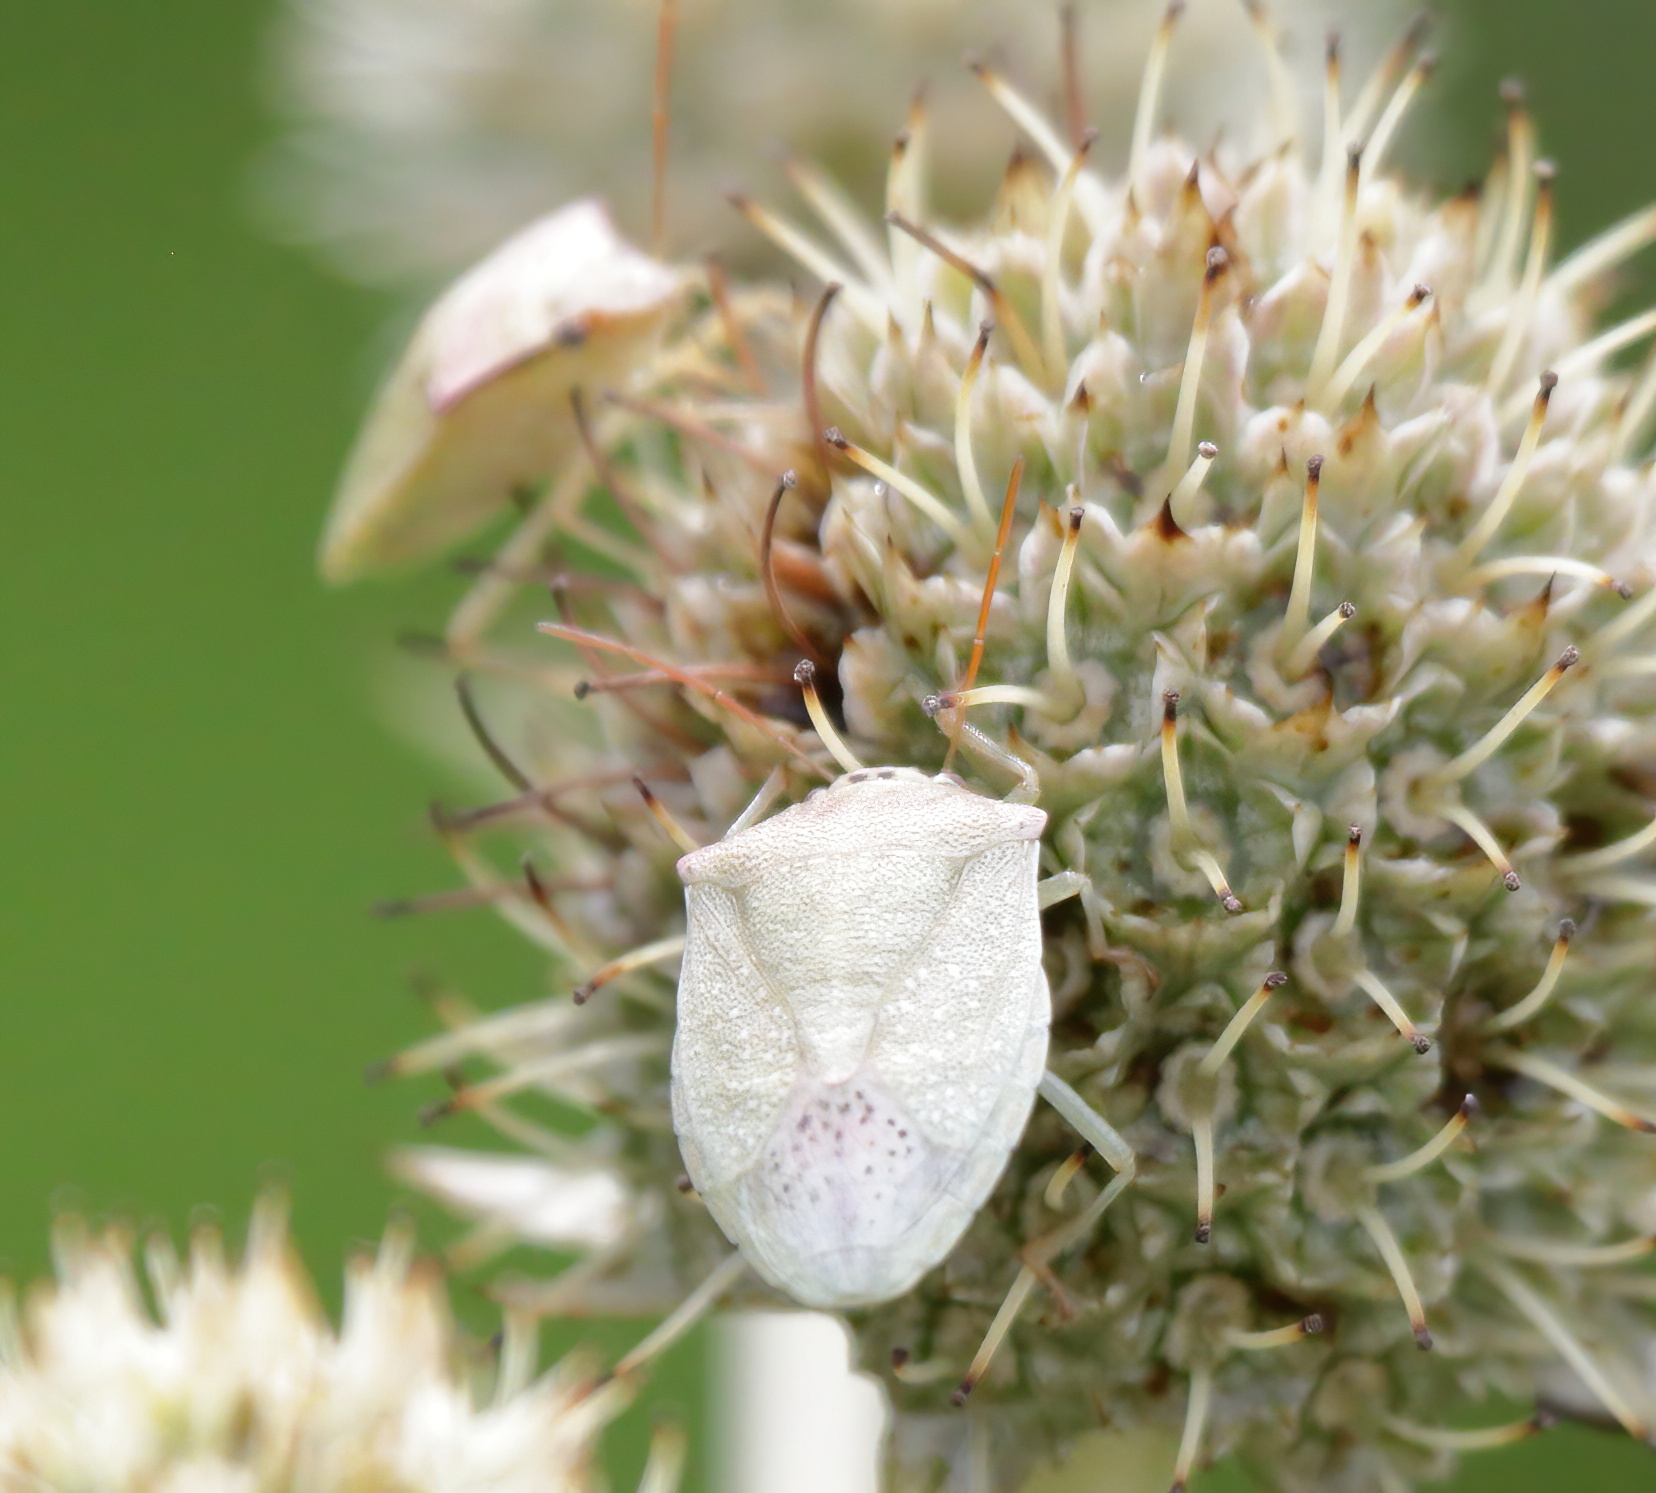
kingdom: Animalia
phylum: Arthropoda
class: Insecta
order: Hemiptera
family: Pentatomidae
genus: Thyanta
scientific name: Thyanta accerra
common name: Stink bug
